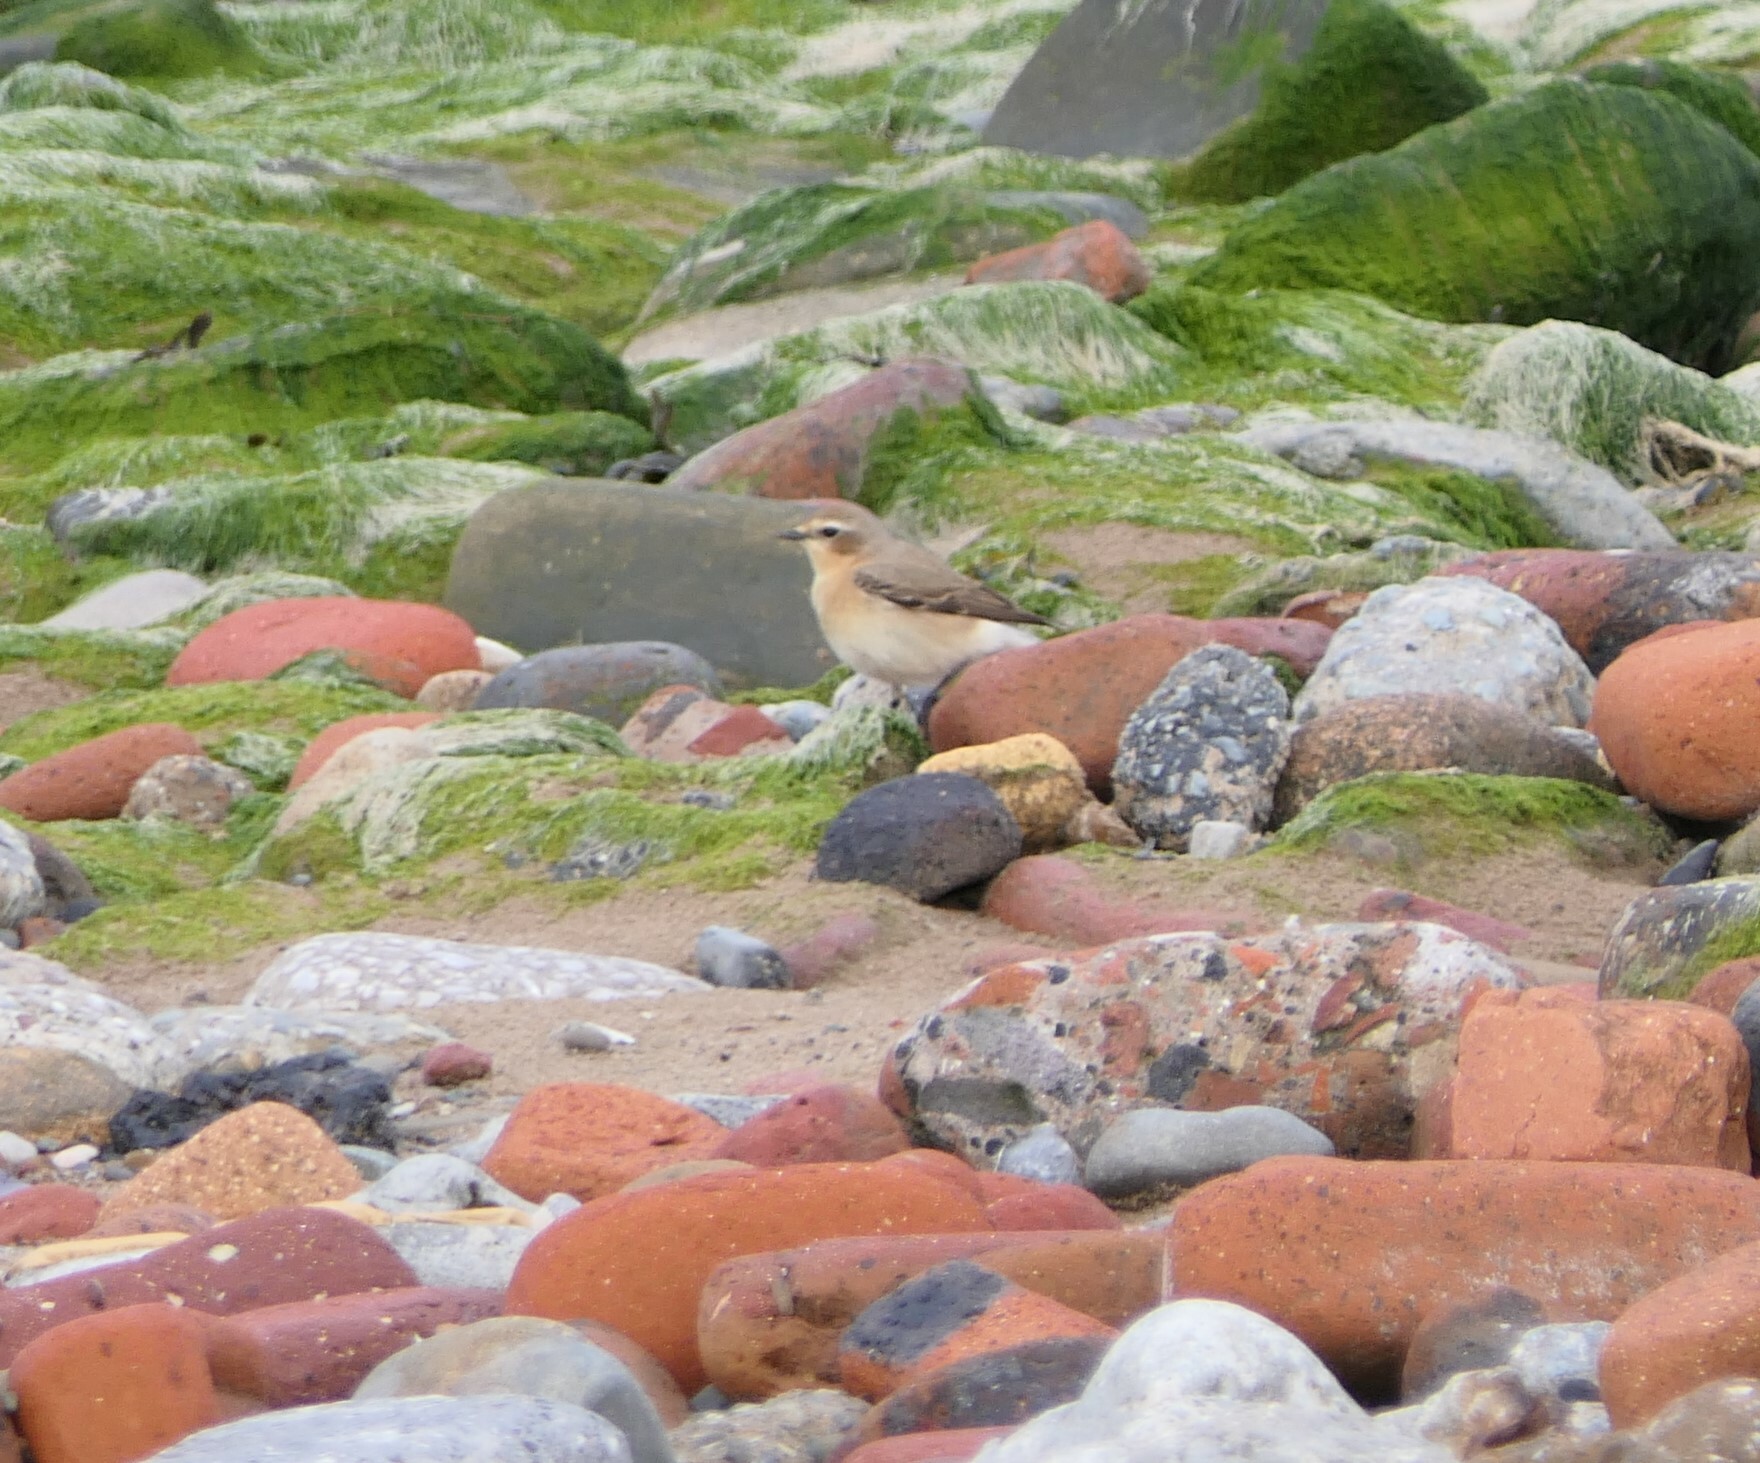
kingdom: Animalia
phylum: Chordata
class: Aves
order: Passeriformes
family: Muscicapidae
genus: Oenanthe
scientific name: Oenanthe oenanthe
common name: Northern wheatear
